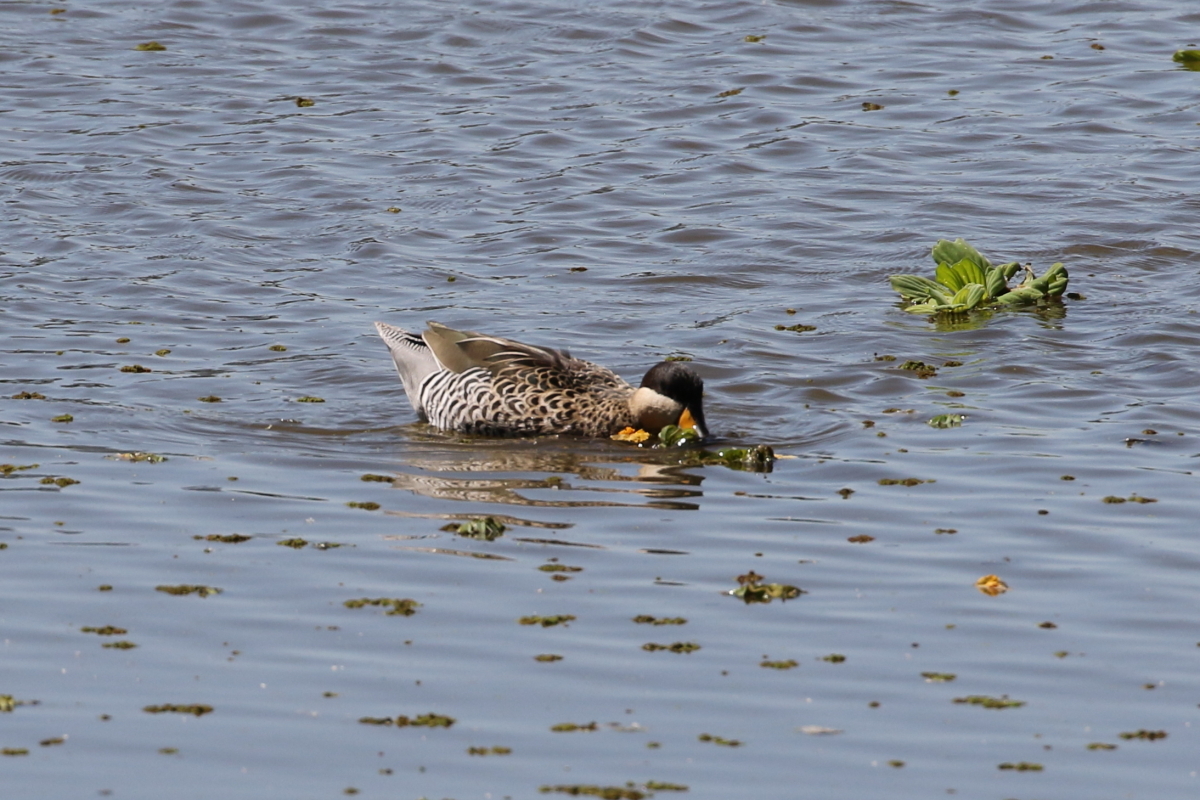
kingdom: Animalia
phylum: Chordata
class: Aves
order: Anseriformes
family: Anatidae
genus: Spatula
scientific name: Spatula versicolor
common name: Silver teal
